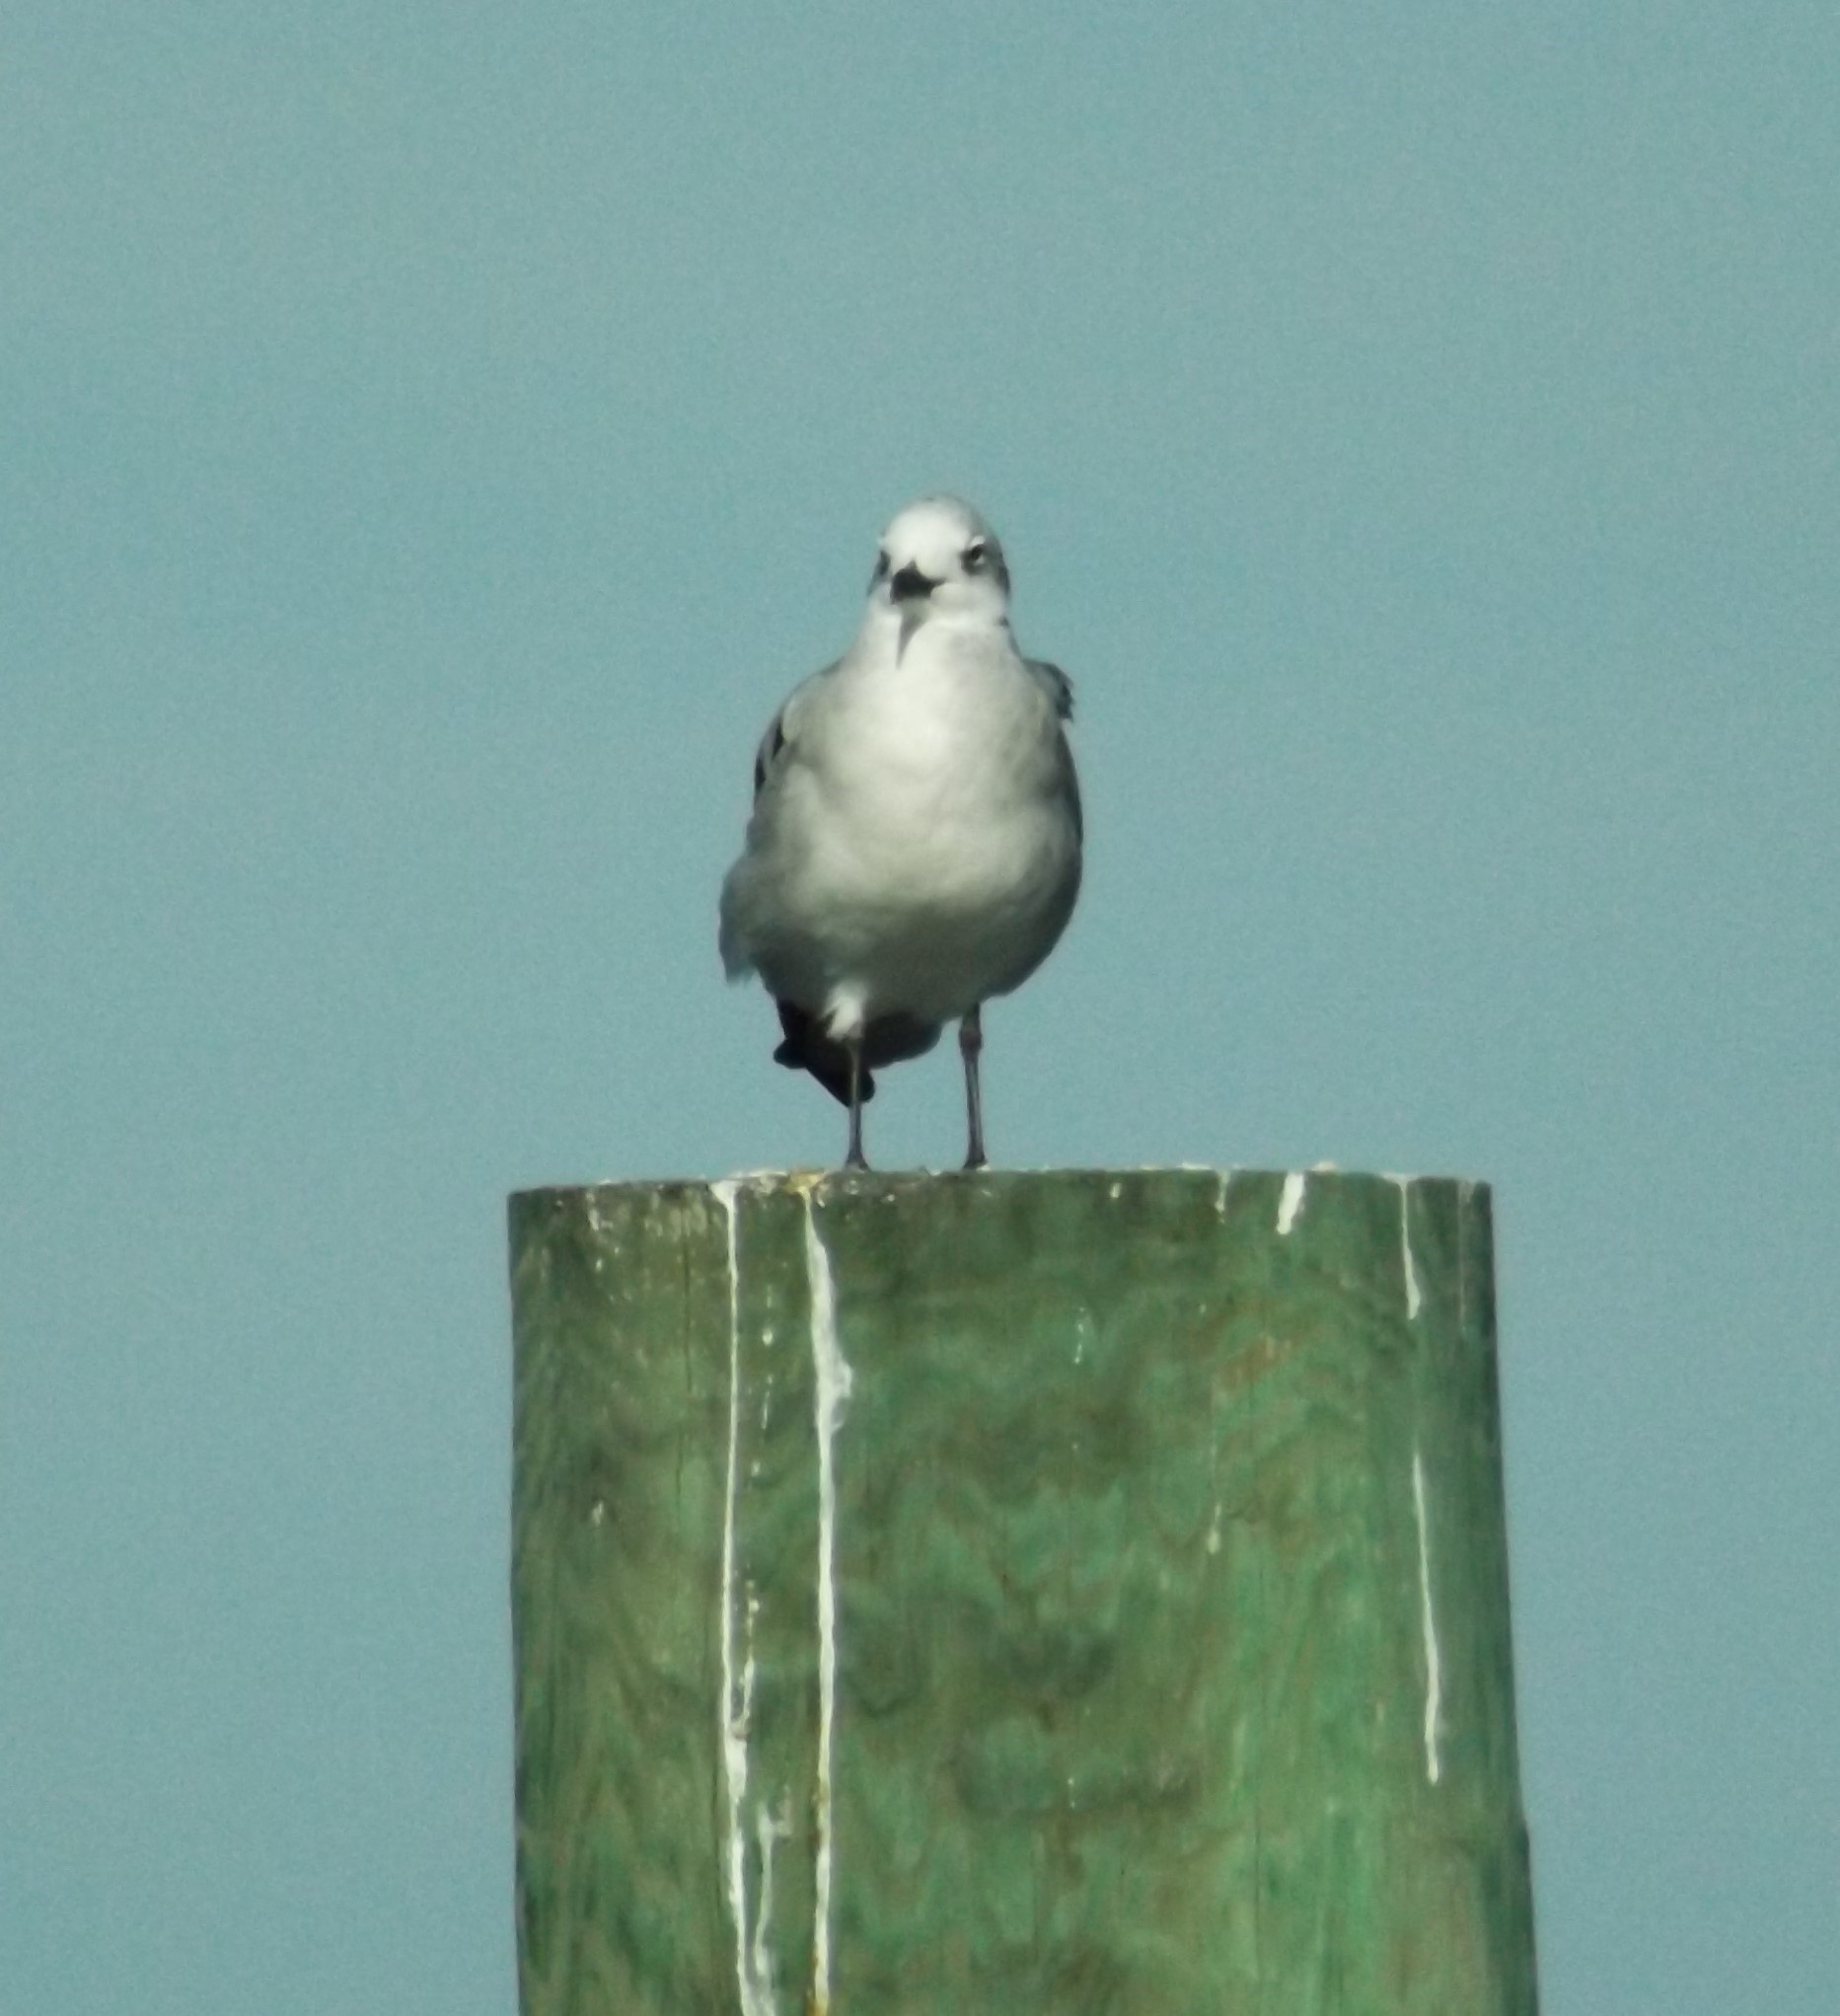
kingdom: Animalia
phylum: Chordata
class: Aves
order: Charadriiformes
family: Laridae
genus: Leucophaeus
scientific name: Leucophaeus atricilla
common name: Laughing gull
